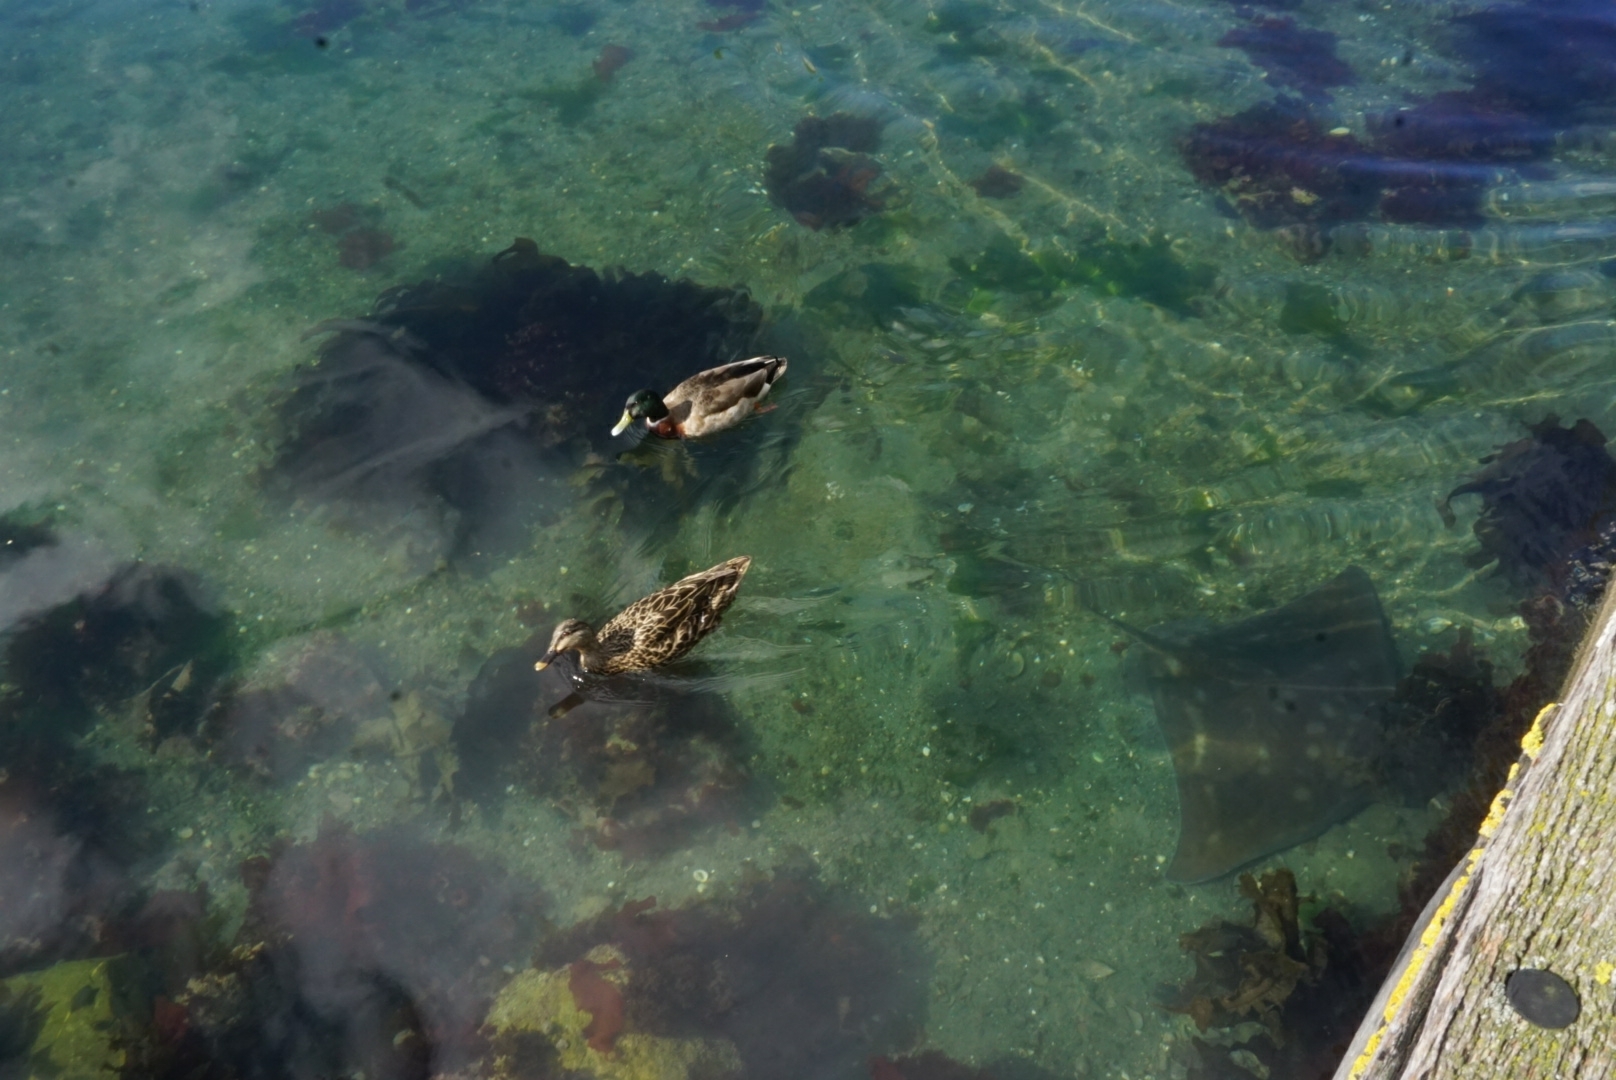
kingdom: Animalia
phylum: Chordata
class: Aves
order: Anseriformes
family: Anatidae
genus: Anas
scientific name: Anas platyrhynchos
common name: Mallard
